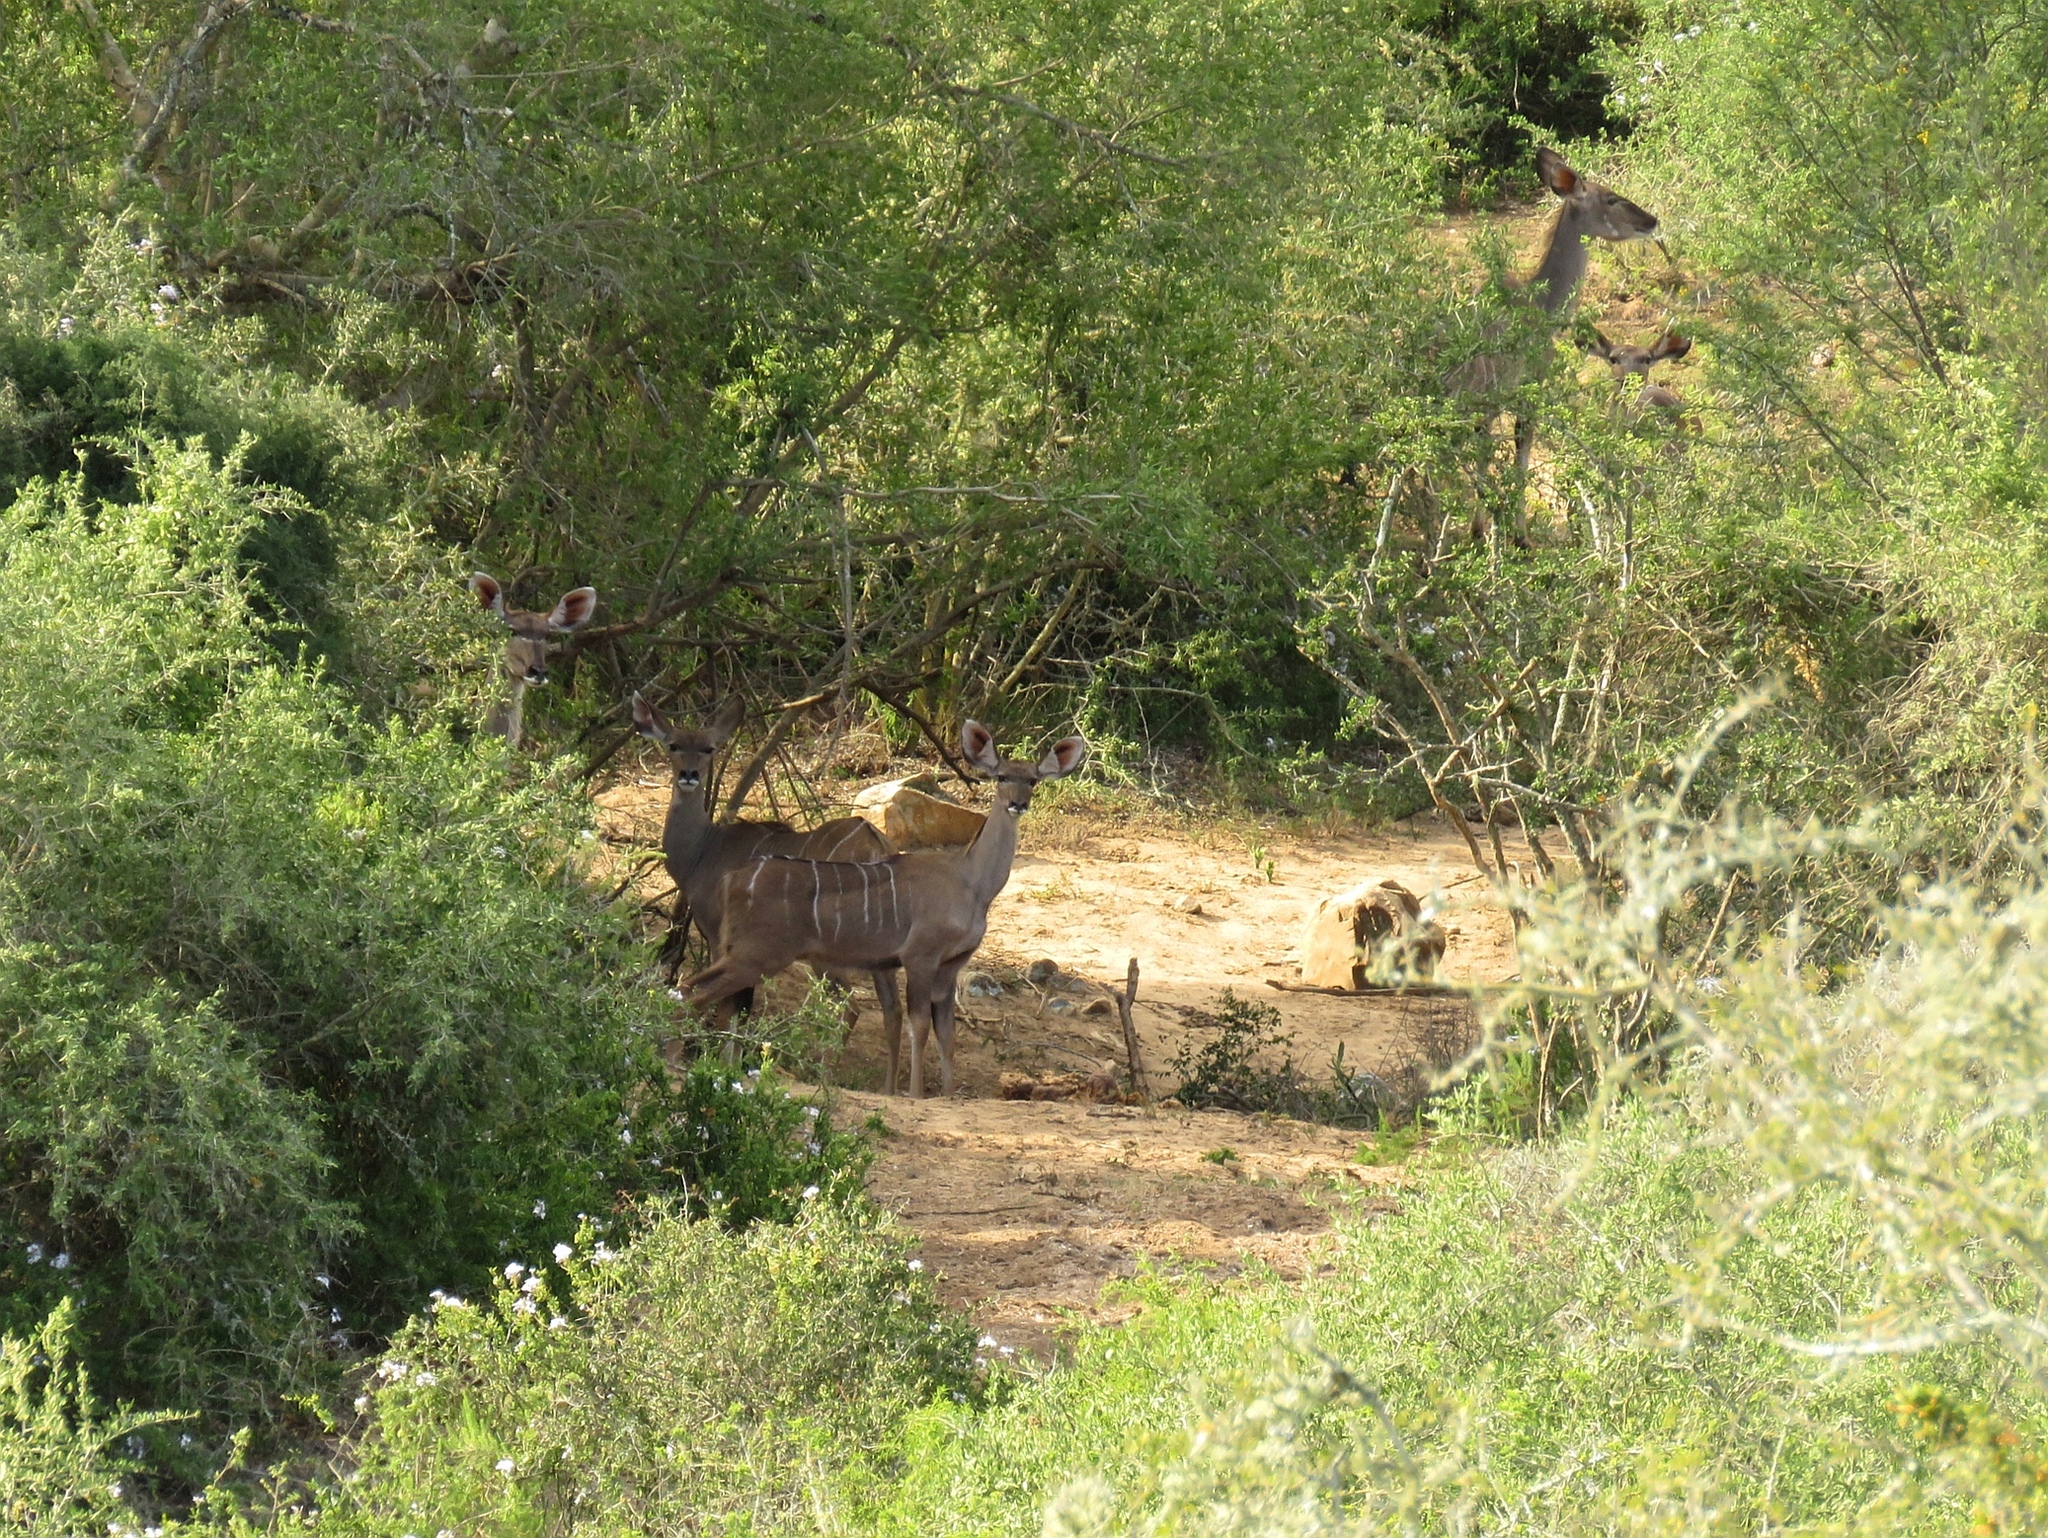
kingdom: Animalia
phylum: Chordata
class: Mammalia
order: Artiodactyla
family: Bovidae
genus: Tragelaphus
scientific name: Tragelaphus strepsiceros
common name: Greater kudu
